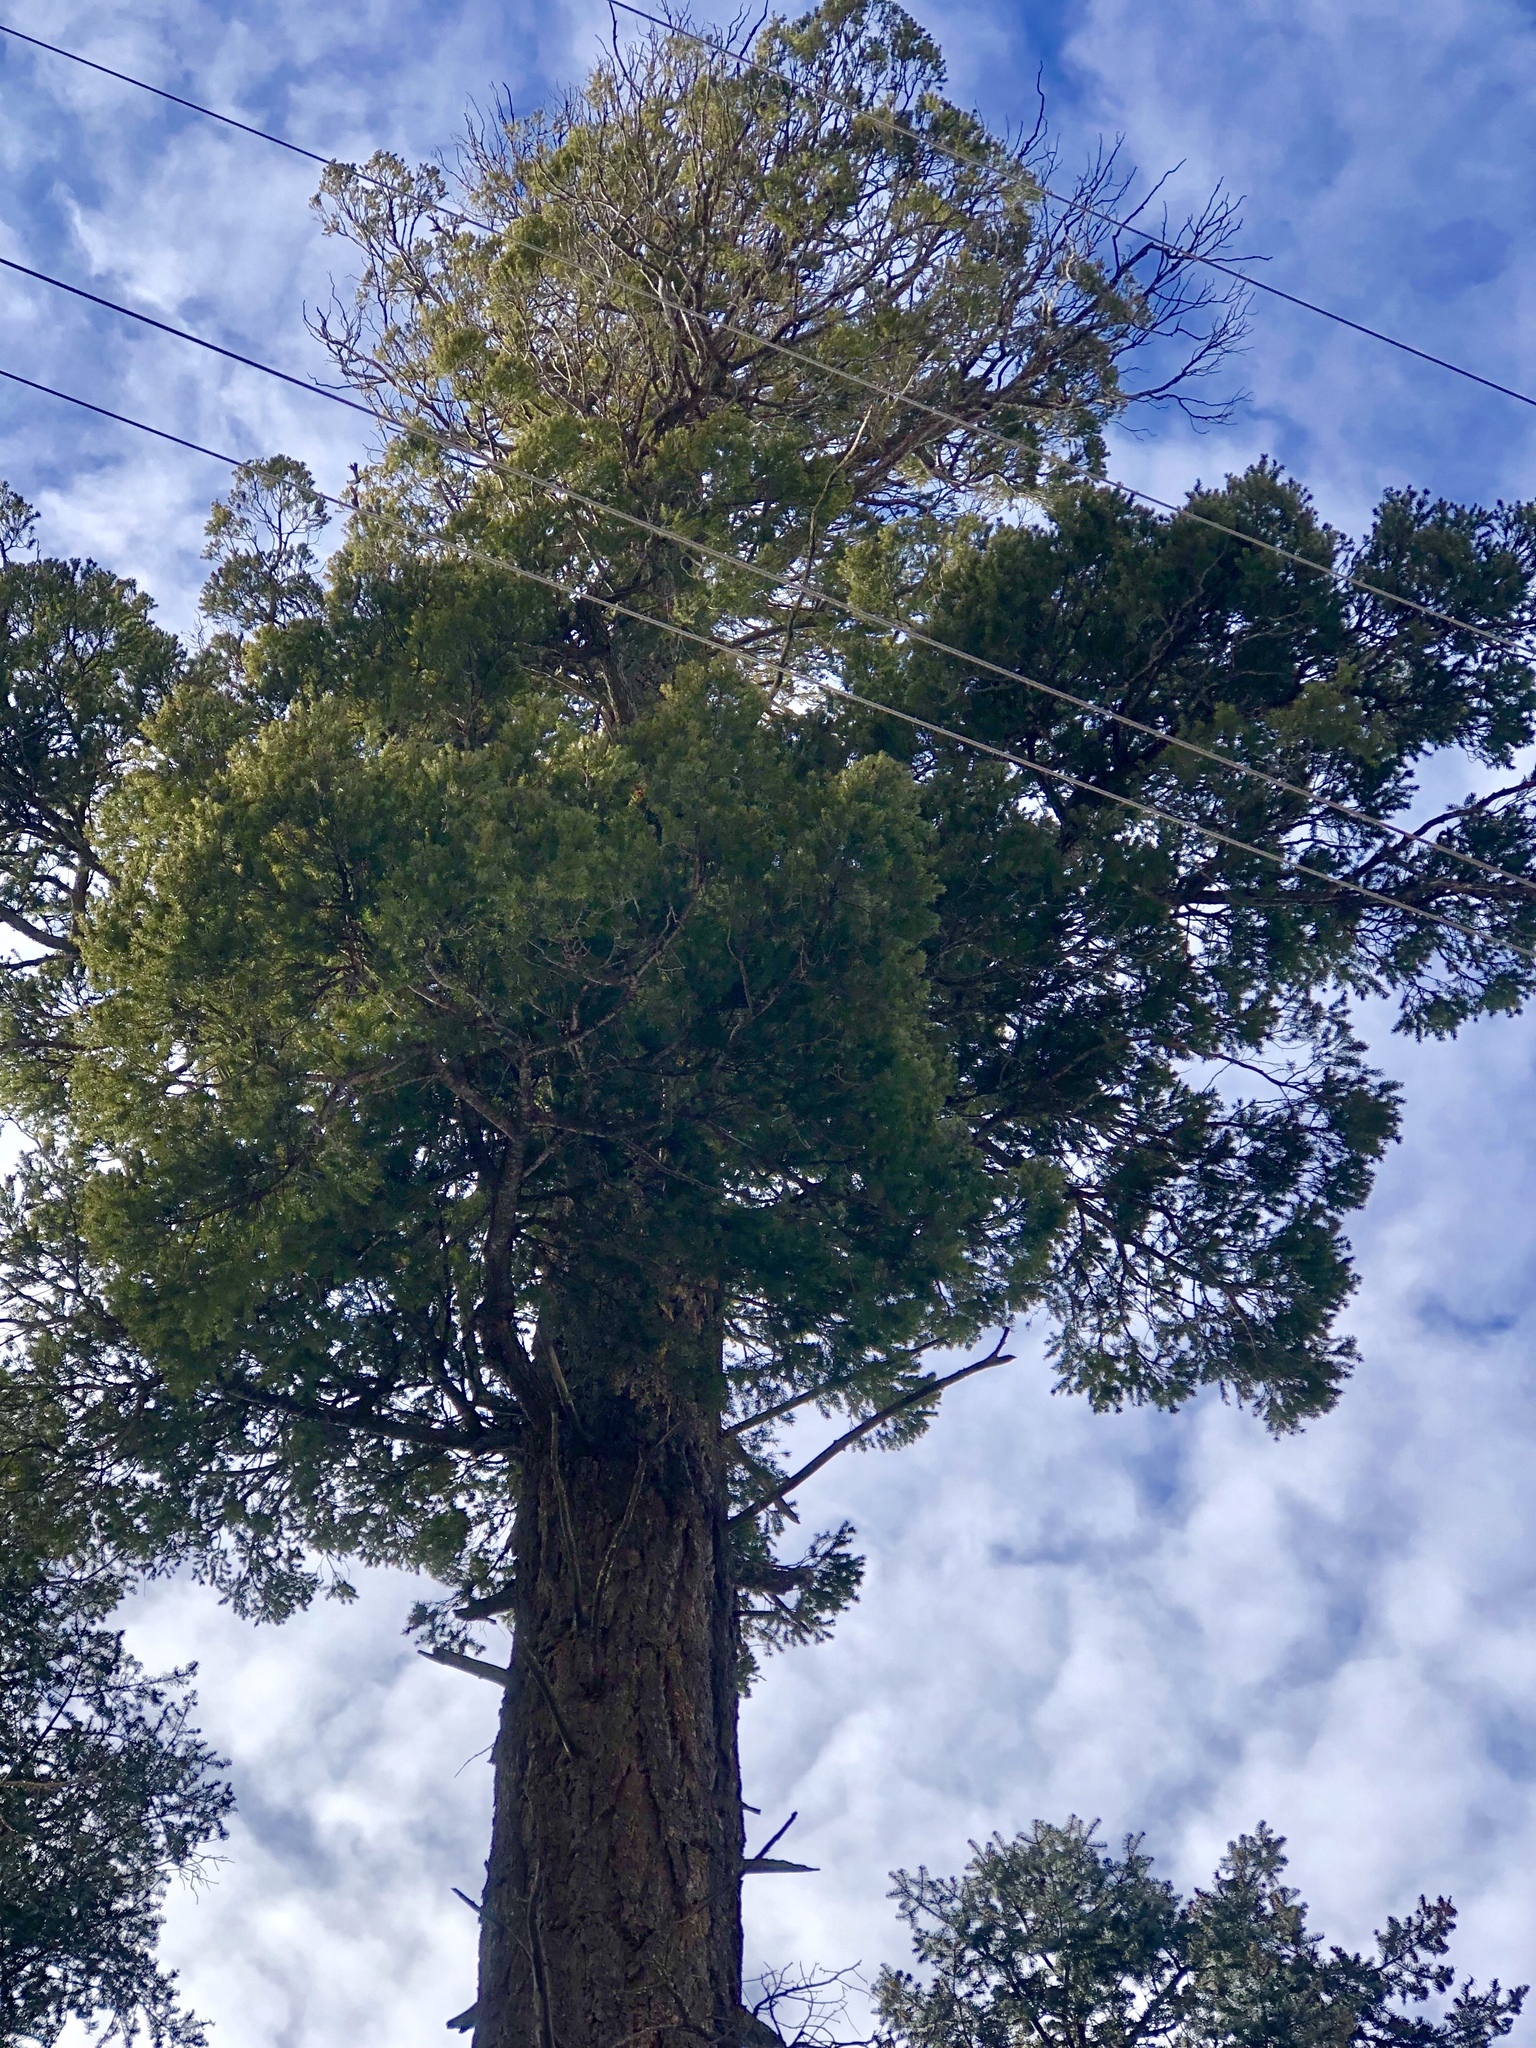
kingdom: Plantae
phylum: Tracheophyta
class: Pinopsida
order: Pinales
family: Pinaceae
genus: Pseudotsuga
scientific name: Pseudotsuga menziesii
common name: Douglas fir
